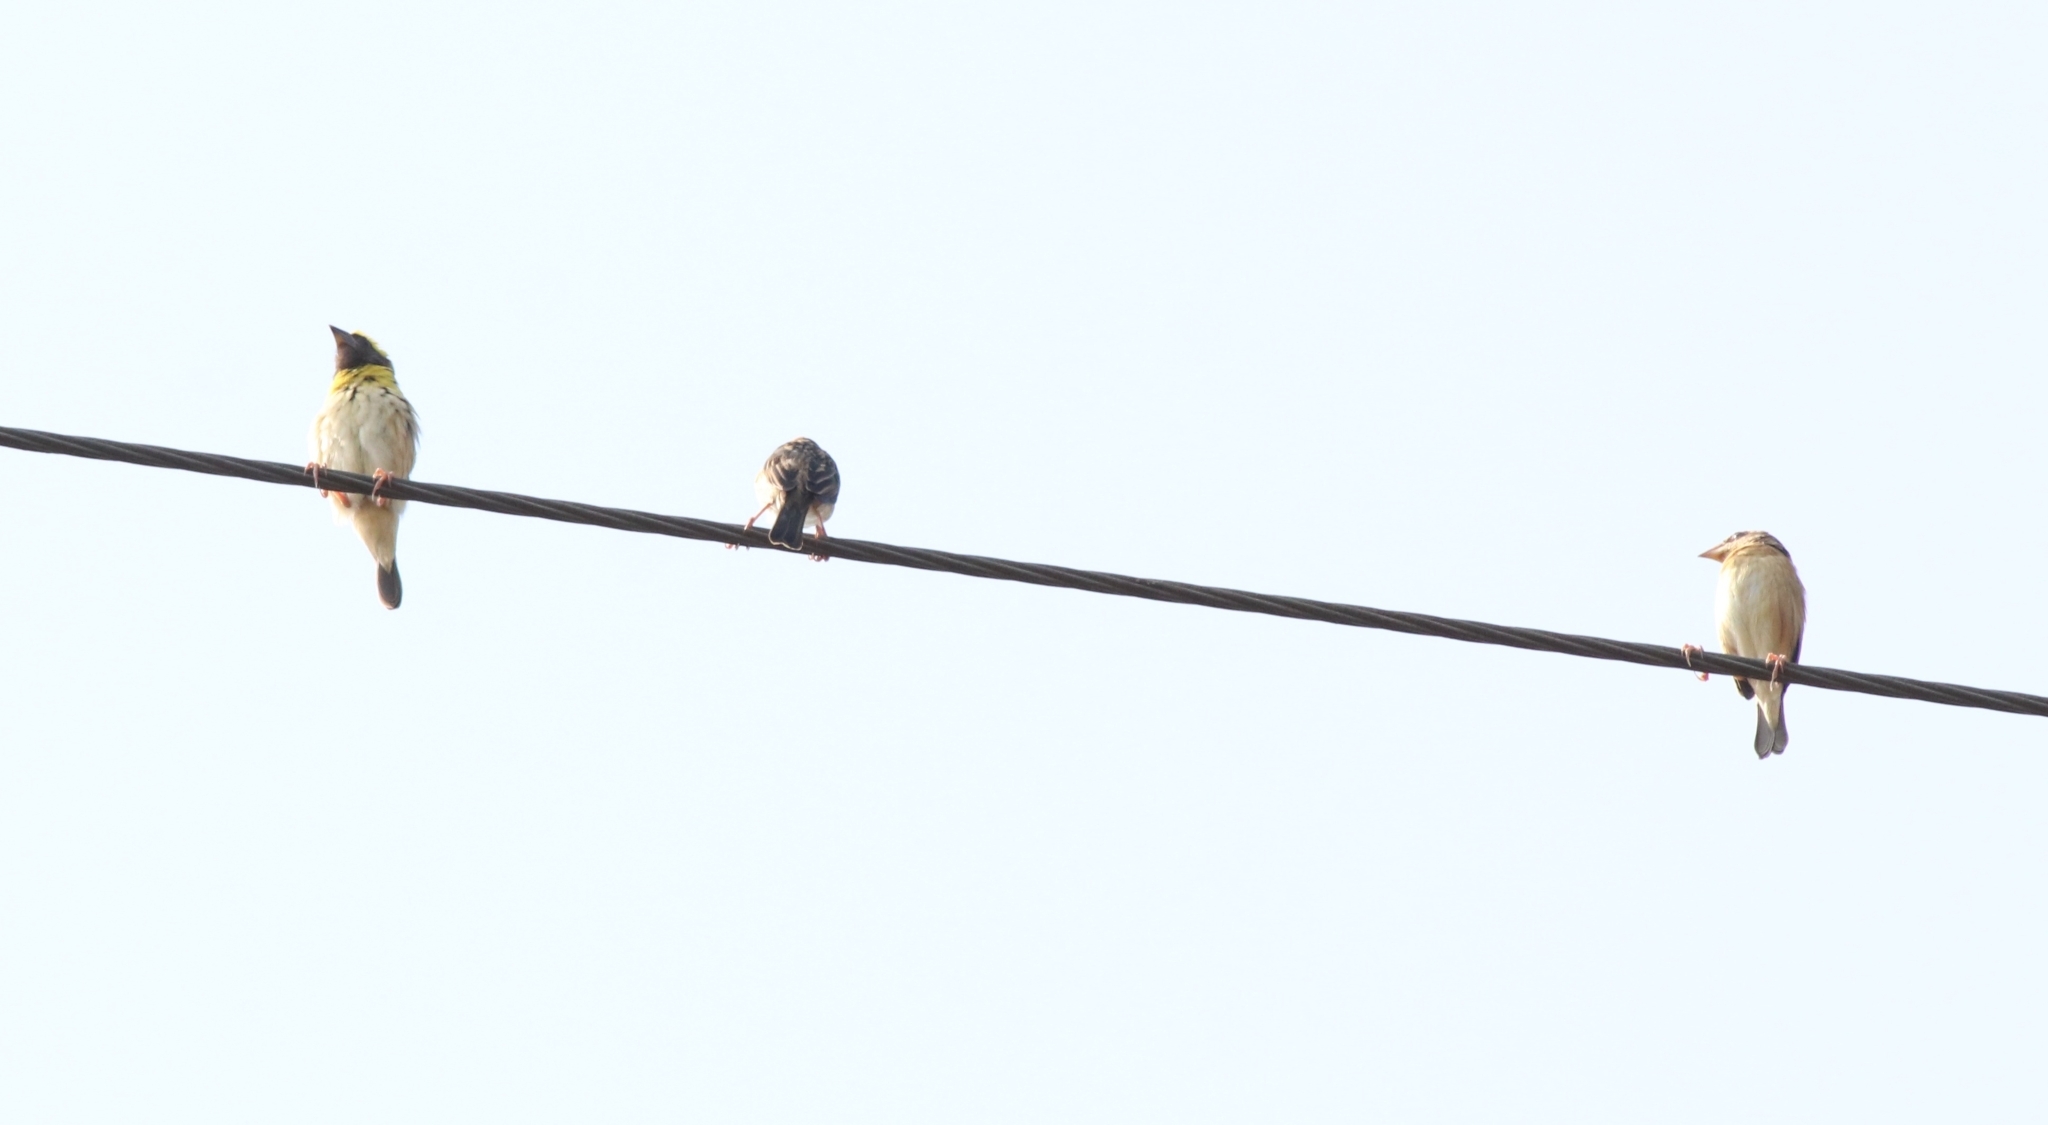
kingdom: Animalia
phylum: Chordata
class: Aves
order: Passeriformes
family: Ploceidae
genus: Ploceus
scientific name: Ploceus philippinus
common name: Baya weaver
